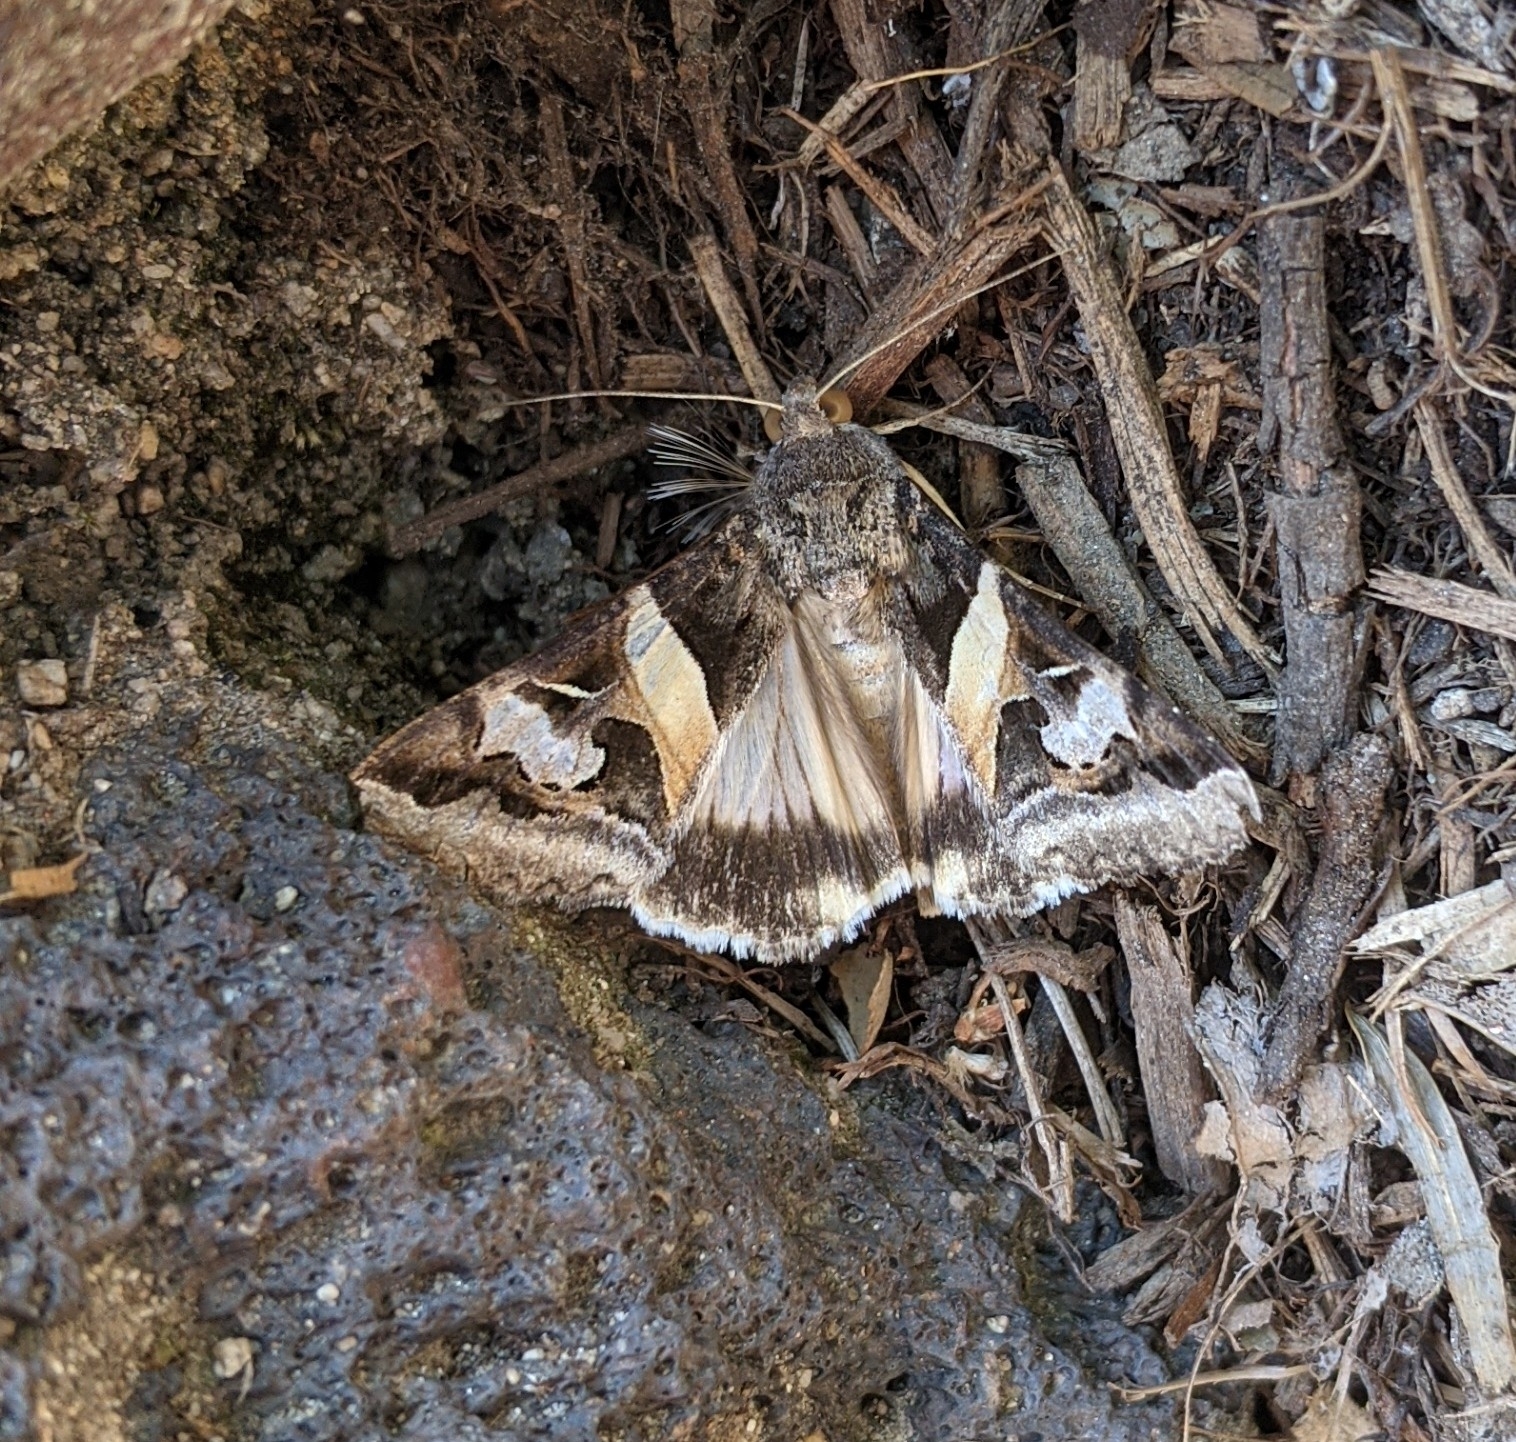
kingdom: Animalia
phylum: Arthropoda
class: Insecta
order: Lepidoptera
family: Erebidae
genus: Melipotis
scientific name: Melipotis indomita
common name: Moth
